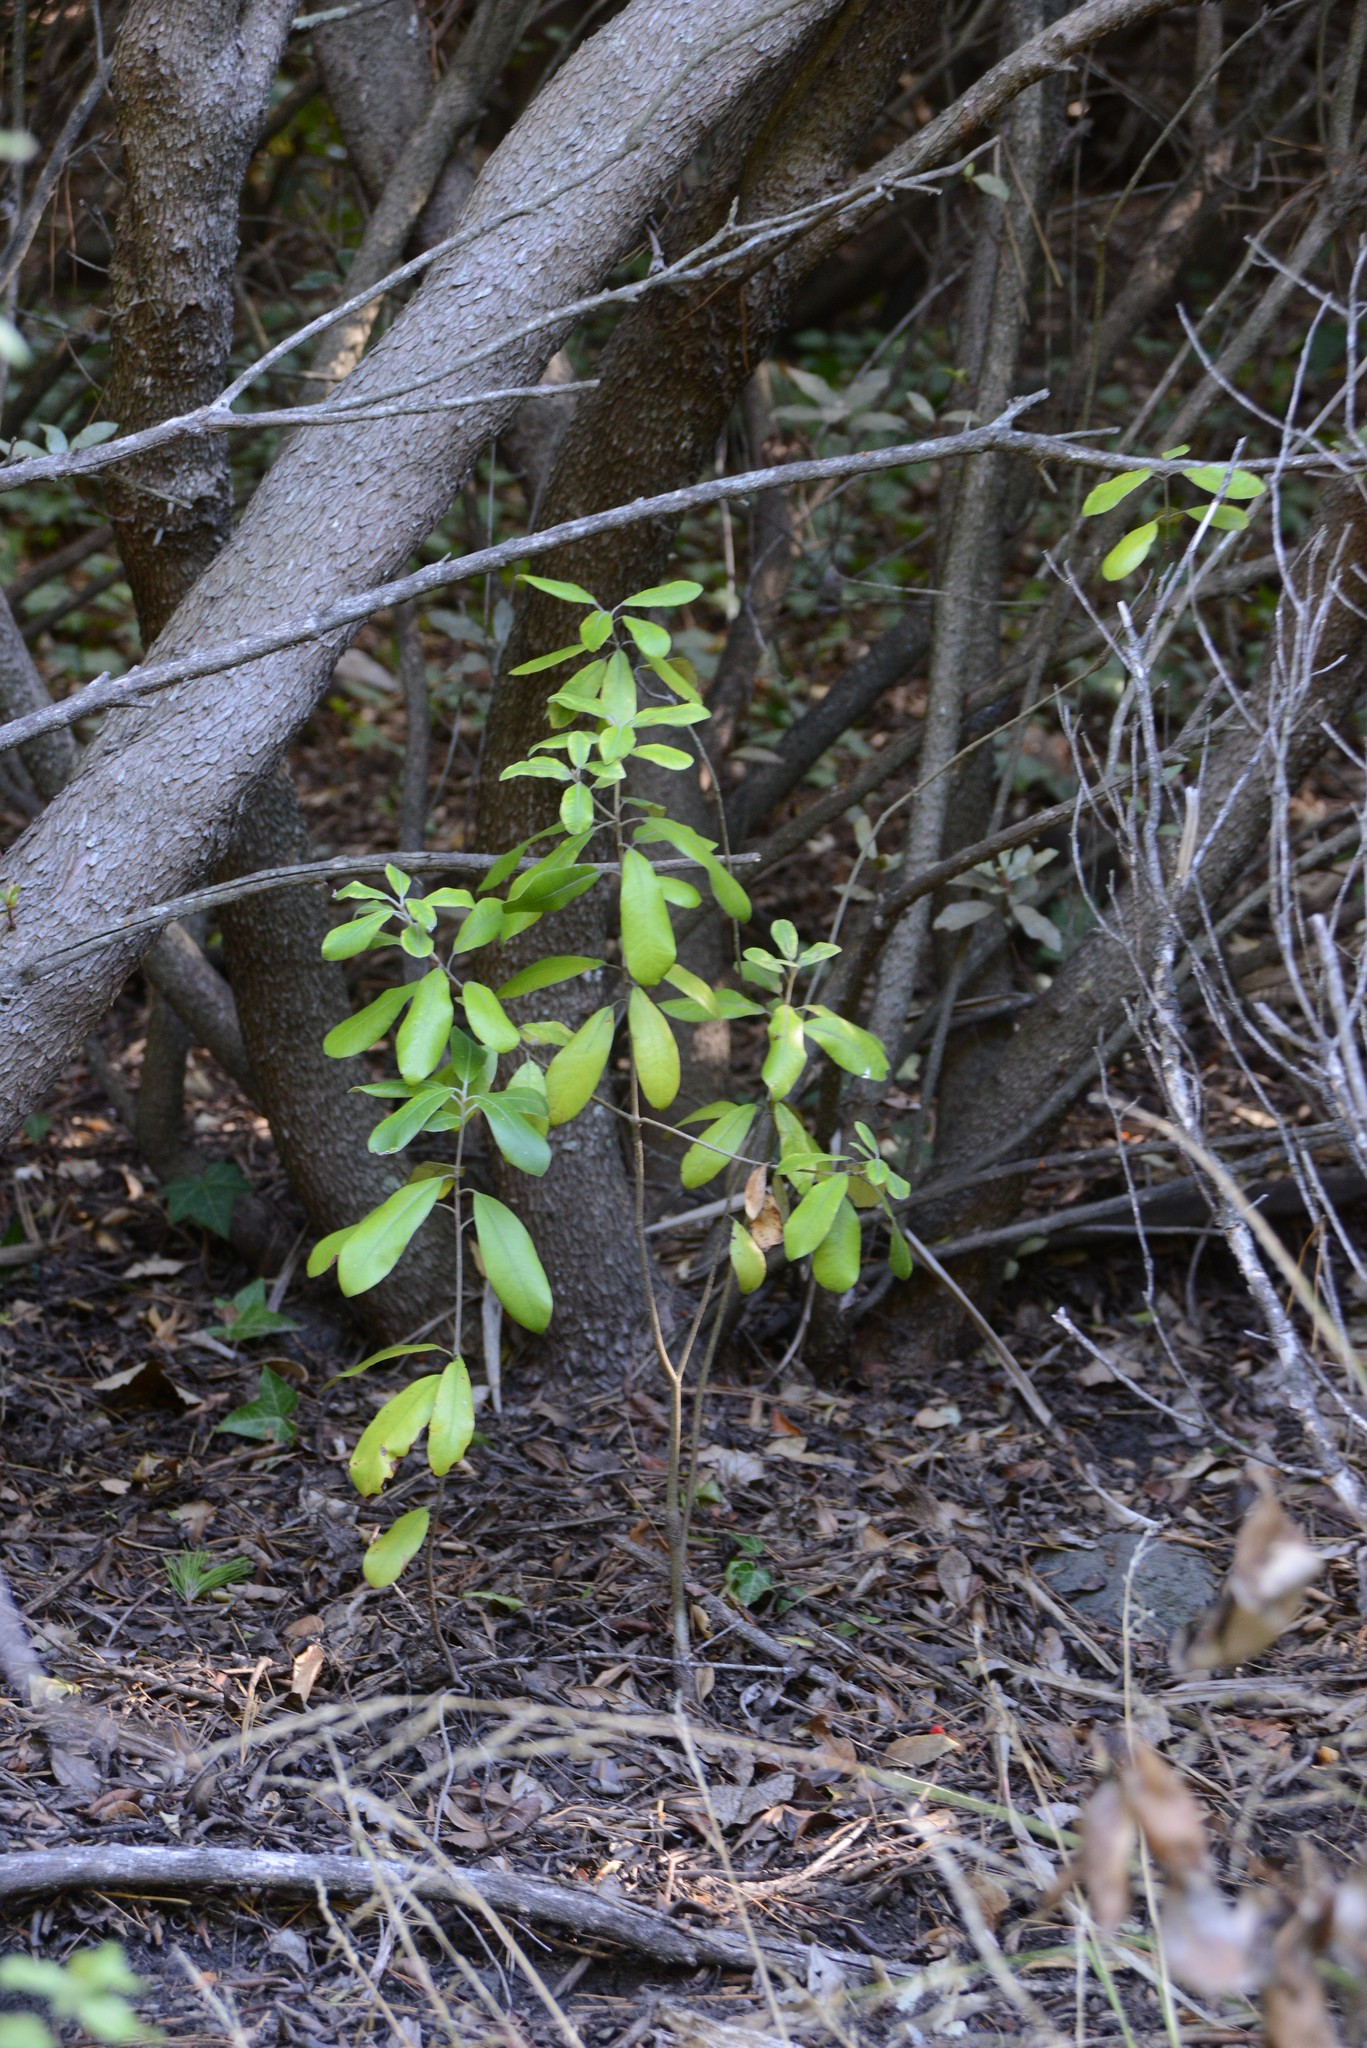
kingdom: Plantae
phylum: Tracheophyta
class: Magnoliopsida
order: Apiales
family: Pittosporaceae
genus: Pittosporum
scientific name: Pittosporum ralphii
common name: Ralph's desertwillow
